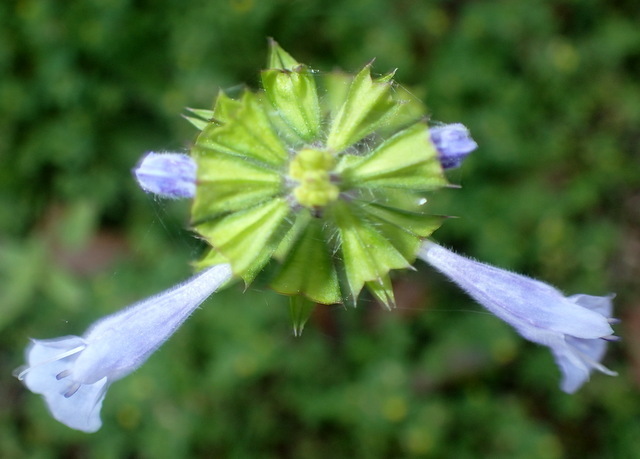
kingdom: Plantae
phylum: Tracheophyta
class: Magnoliopsida
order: Lamiales
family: Lamiaceae
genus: Salvia
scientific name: Salvia lyrata
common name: Cancerweed
